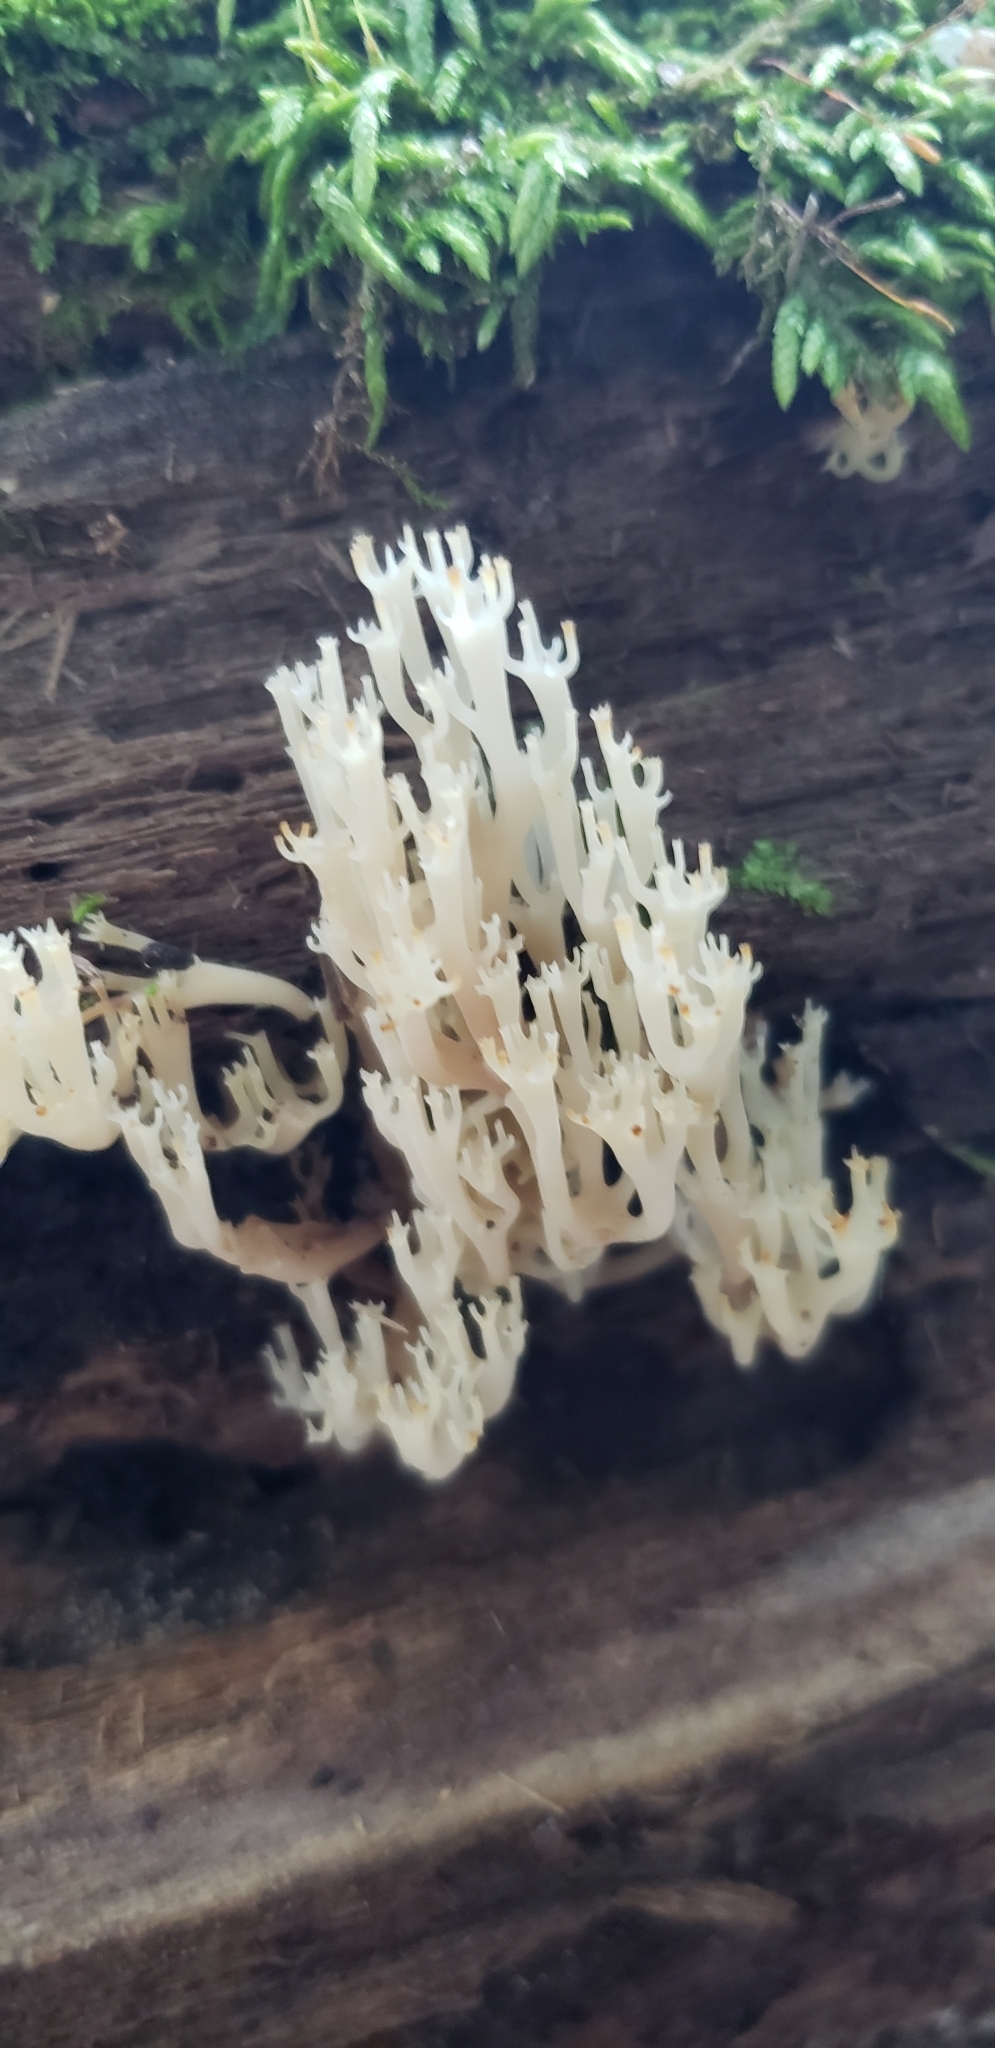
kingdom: Fungi
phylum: Basidiomycota
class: Agaricomycetes
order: Russulales
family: Auriscalpiaceae
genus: Artomyces
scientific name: Artomyces pyxidatus
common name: Crown-tipped coral fungus
